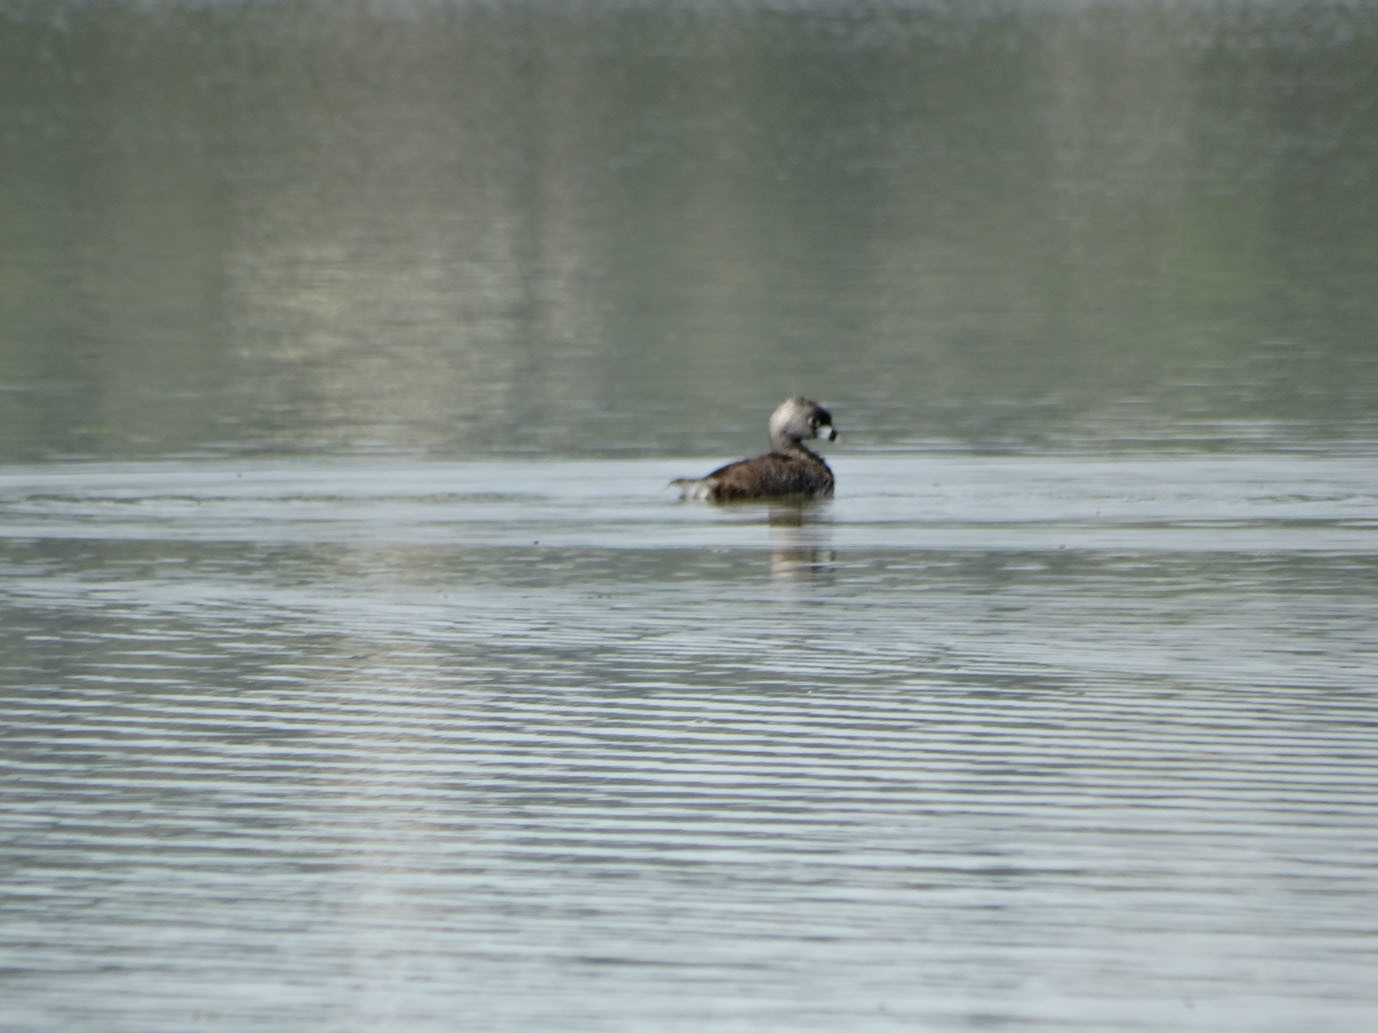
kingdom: Animalia
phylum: Chordata
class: Aves
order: Podicipediformes
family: Podicipedidae
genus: Podilymbus
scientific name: Podilymbus podiceps
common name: Pied-billed grebe
